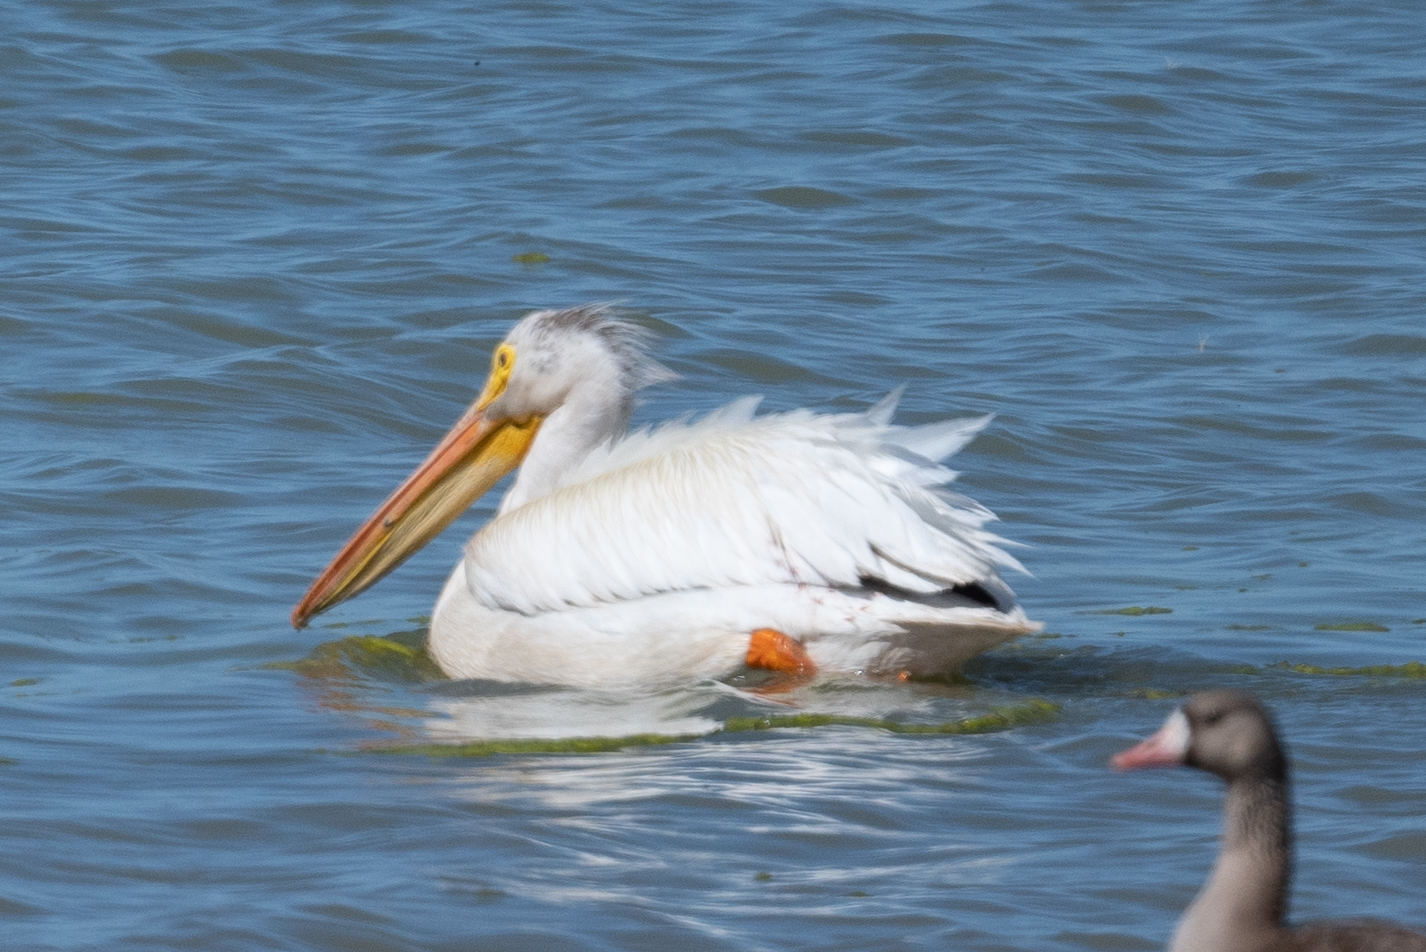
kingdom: Animalia
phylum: Chordata
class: Aves
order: Pelecaniformes
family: Pelecanidae
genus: Pelecanus
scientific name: Pelecanus erythrorhynchos
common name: American white pelican
